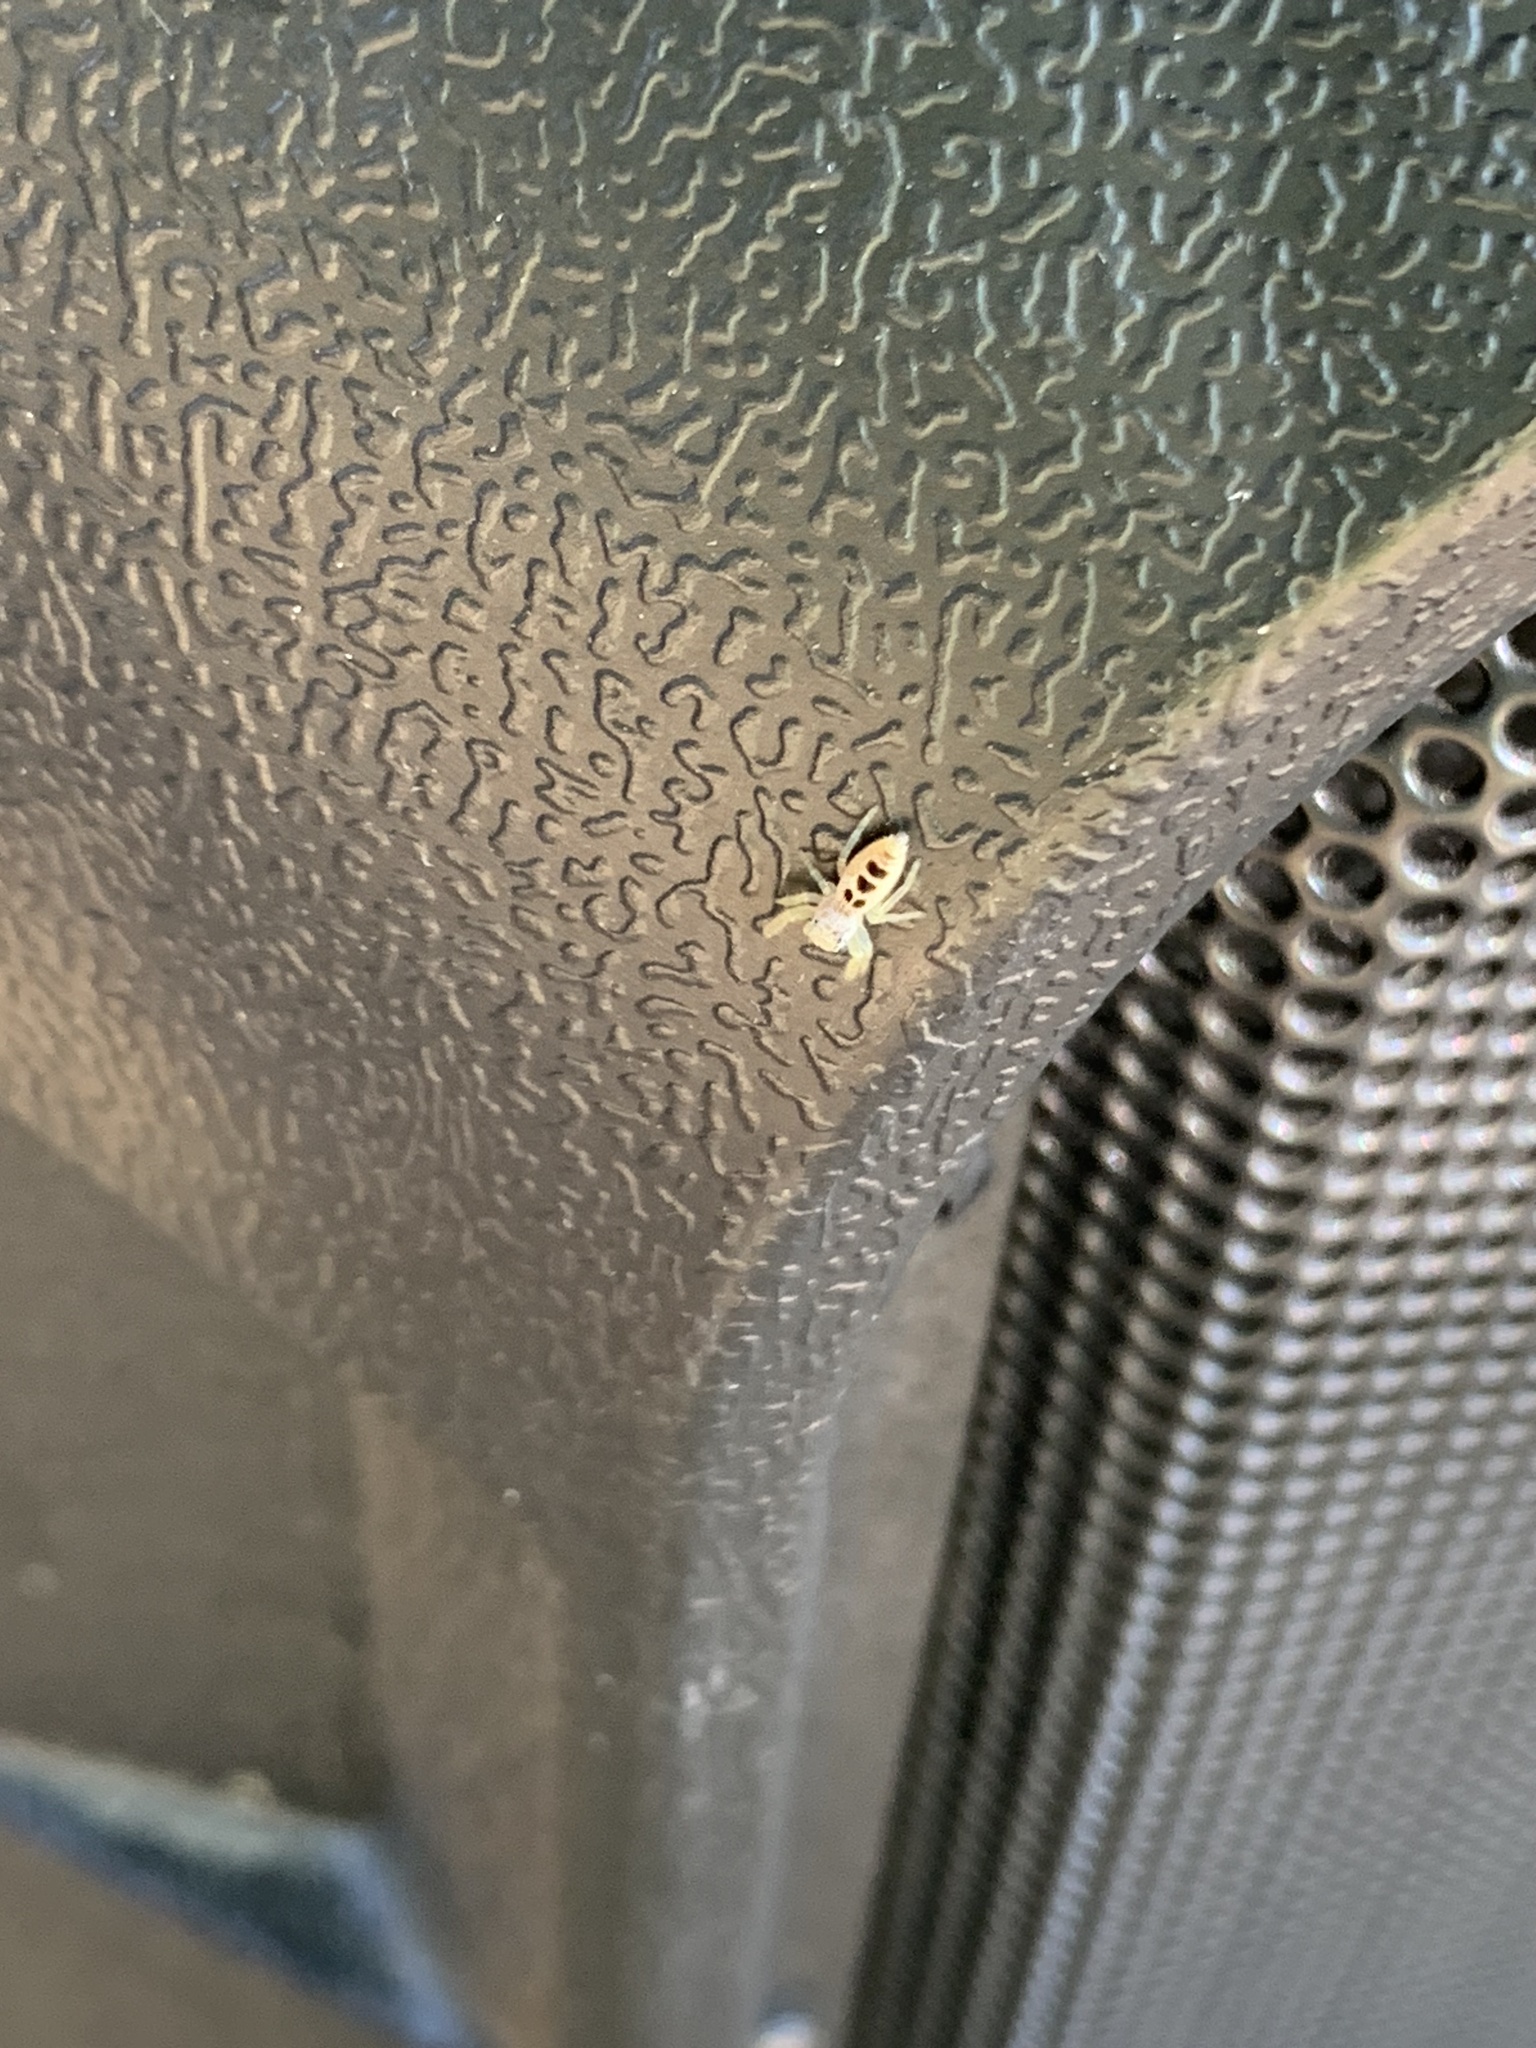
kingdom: Animalia
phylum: Arthropoda
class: Arachnida
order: Araneae
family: Salticidae
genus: Hentzia
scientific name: Hentzia mitrata
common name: White-jawed jumping spider
